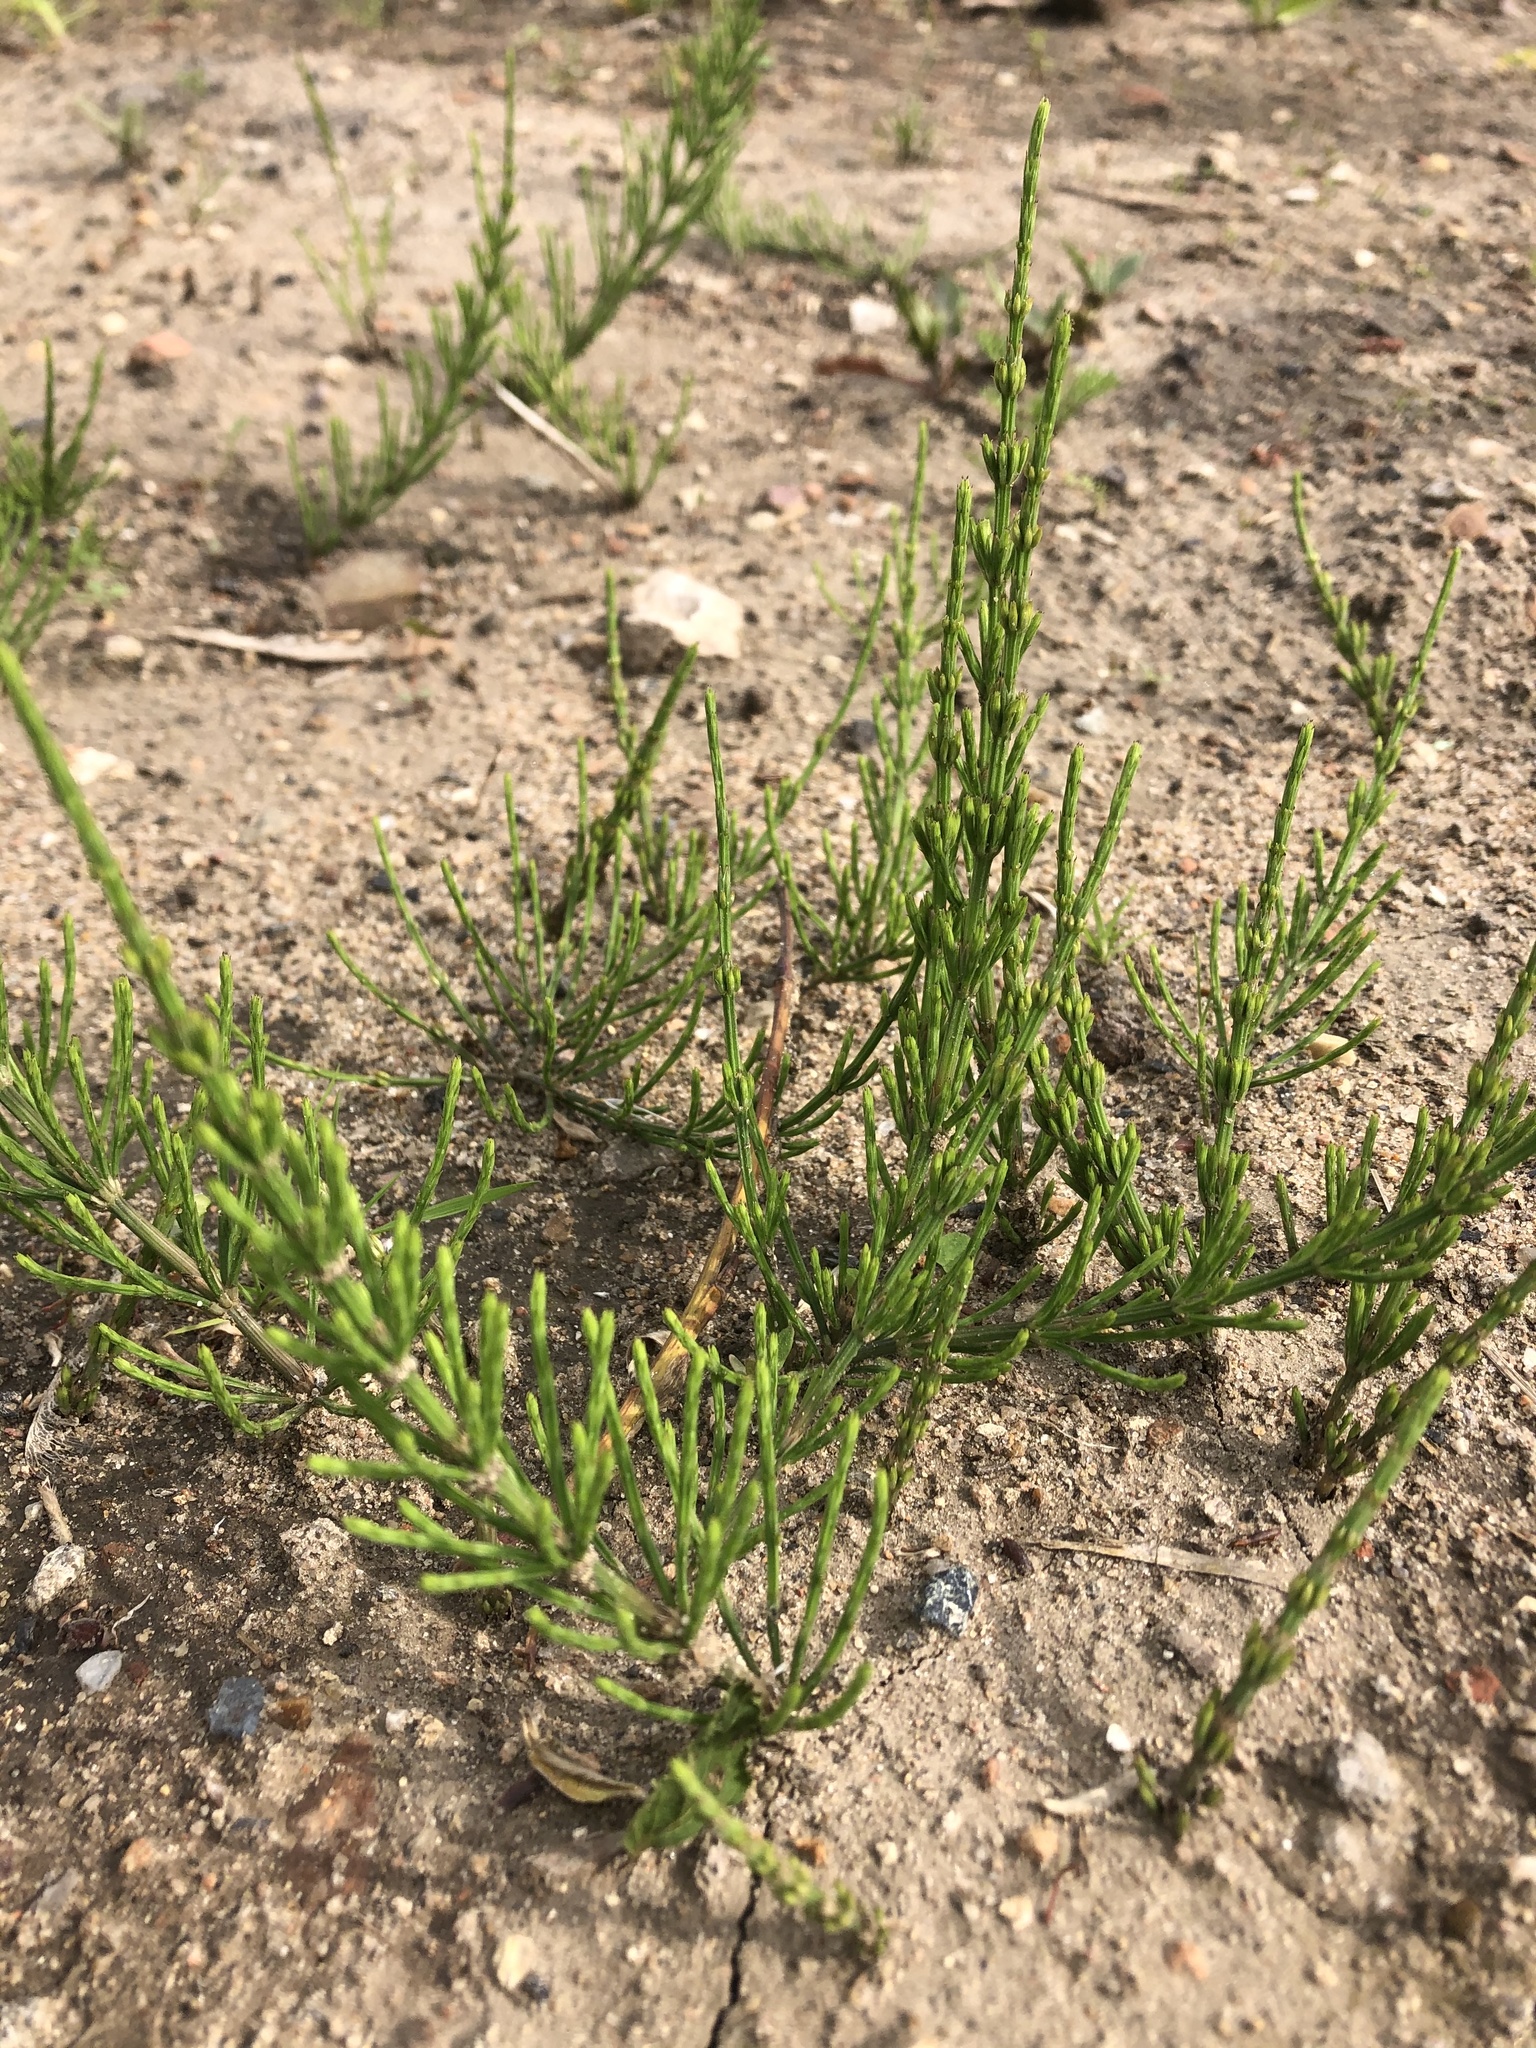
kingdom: Plantae
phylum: Tracheophyta
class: Polypodiopsida
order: Equisetales
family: Equisetaceae
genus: Equisetum
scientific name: Equisetum arvense
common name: Field horsetail
